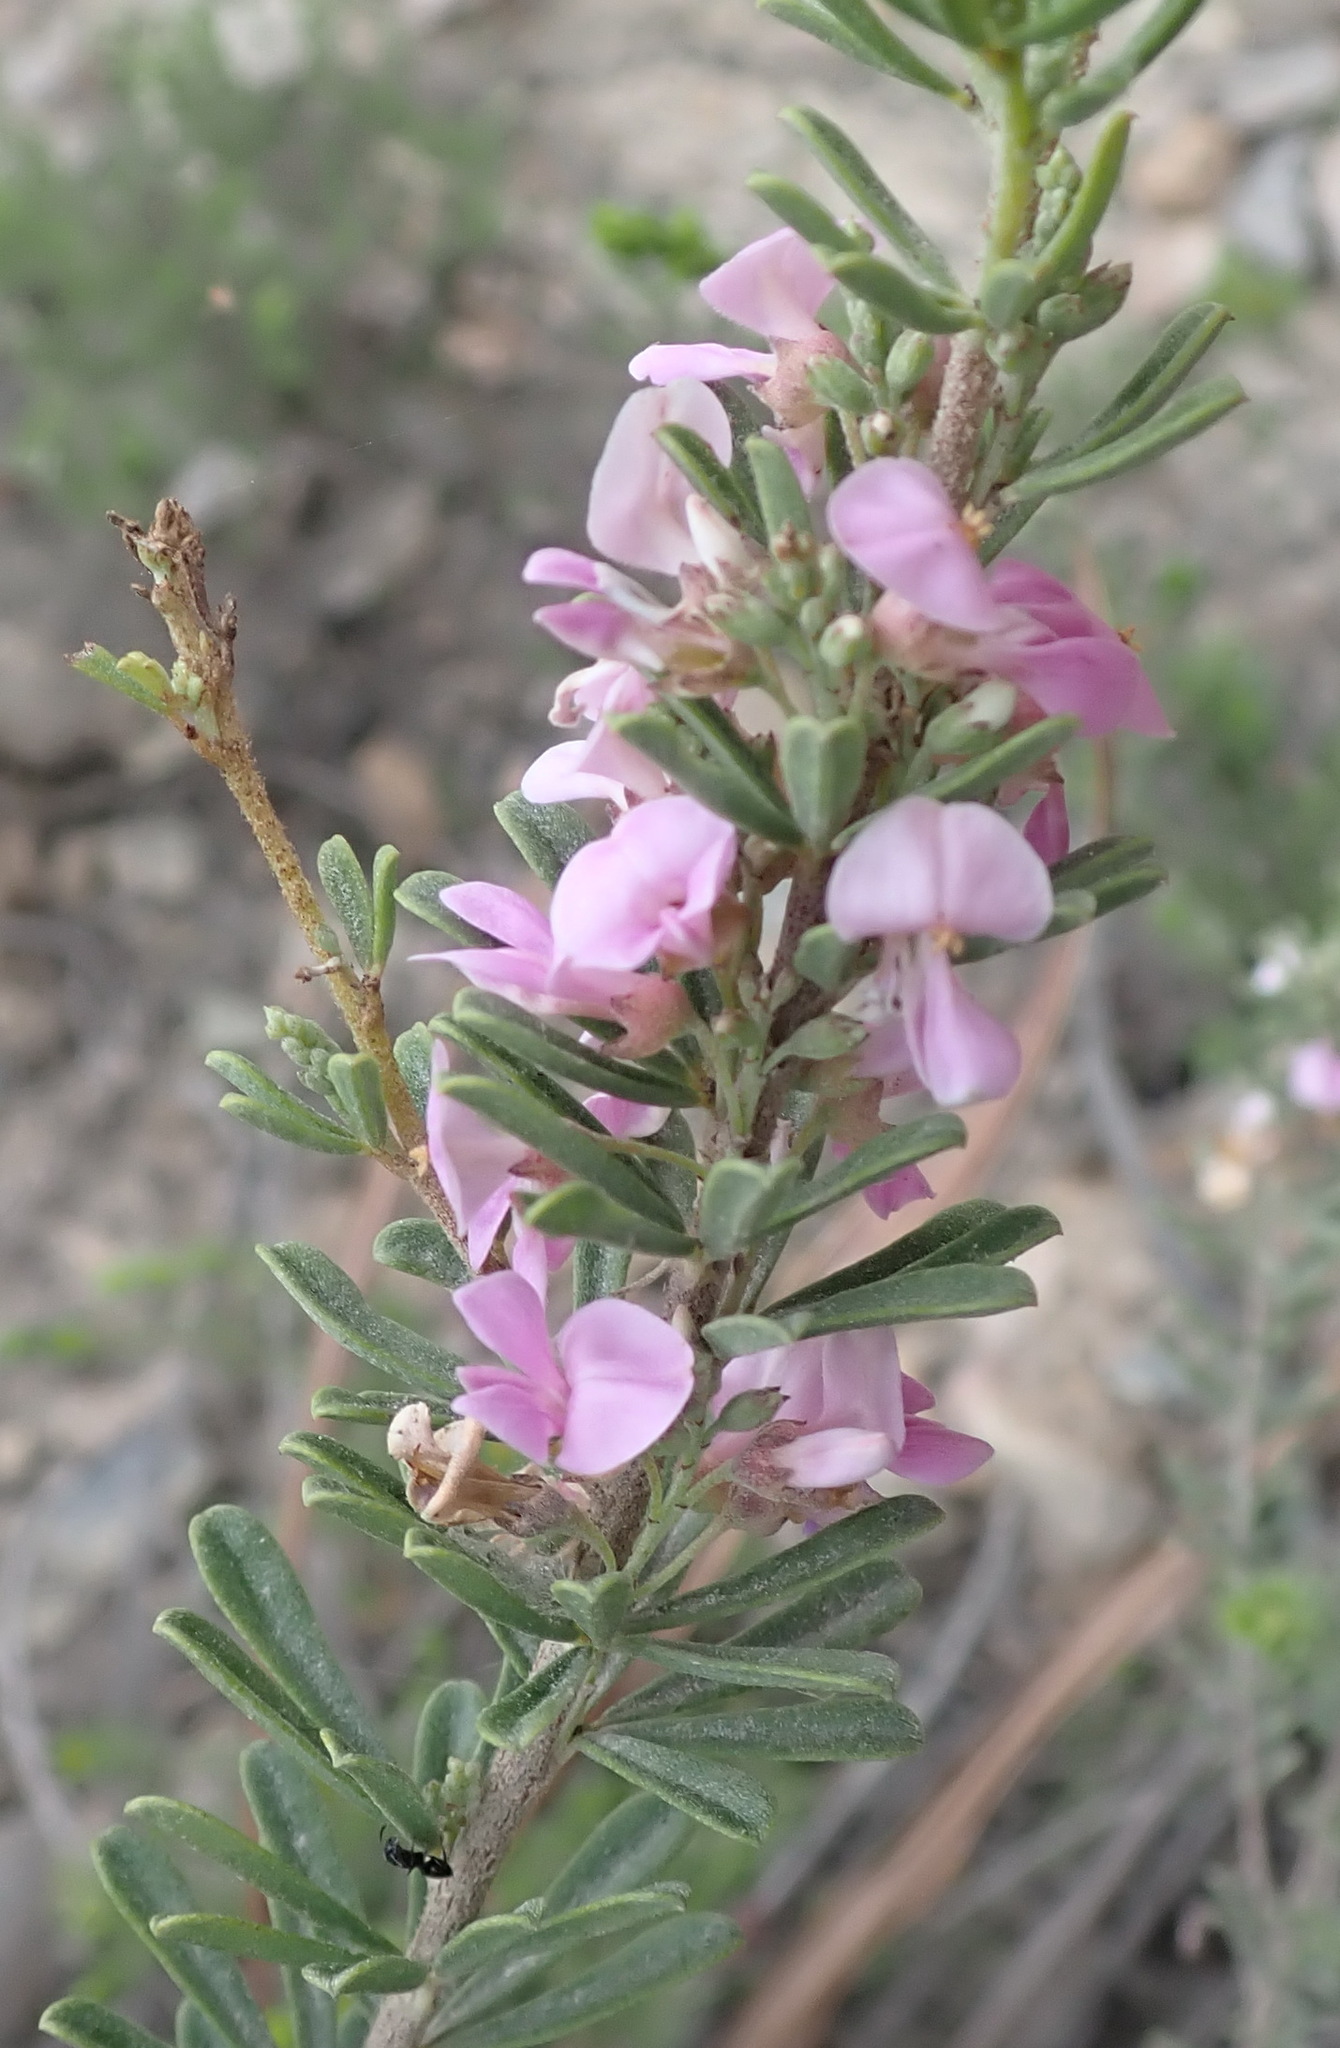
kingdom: Plantae
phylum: Tracheophyta
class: Magnoliopsida
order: Fabales
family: Fabaceae
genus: Indigofera
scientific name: Indigofera flabellata
